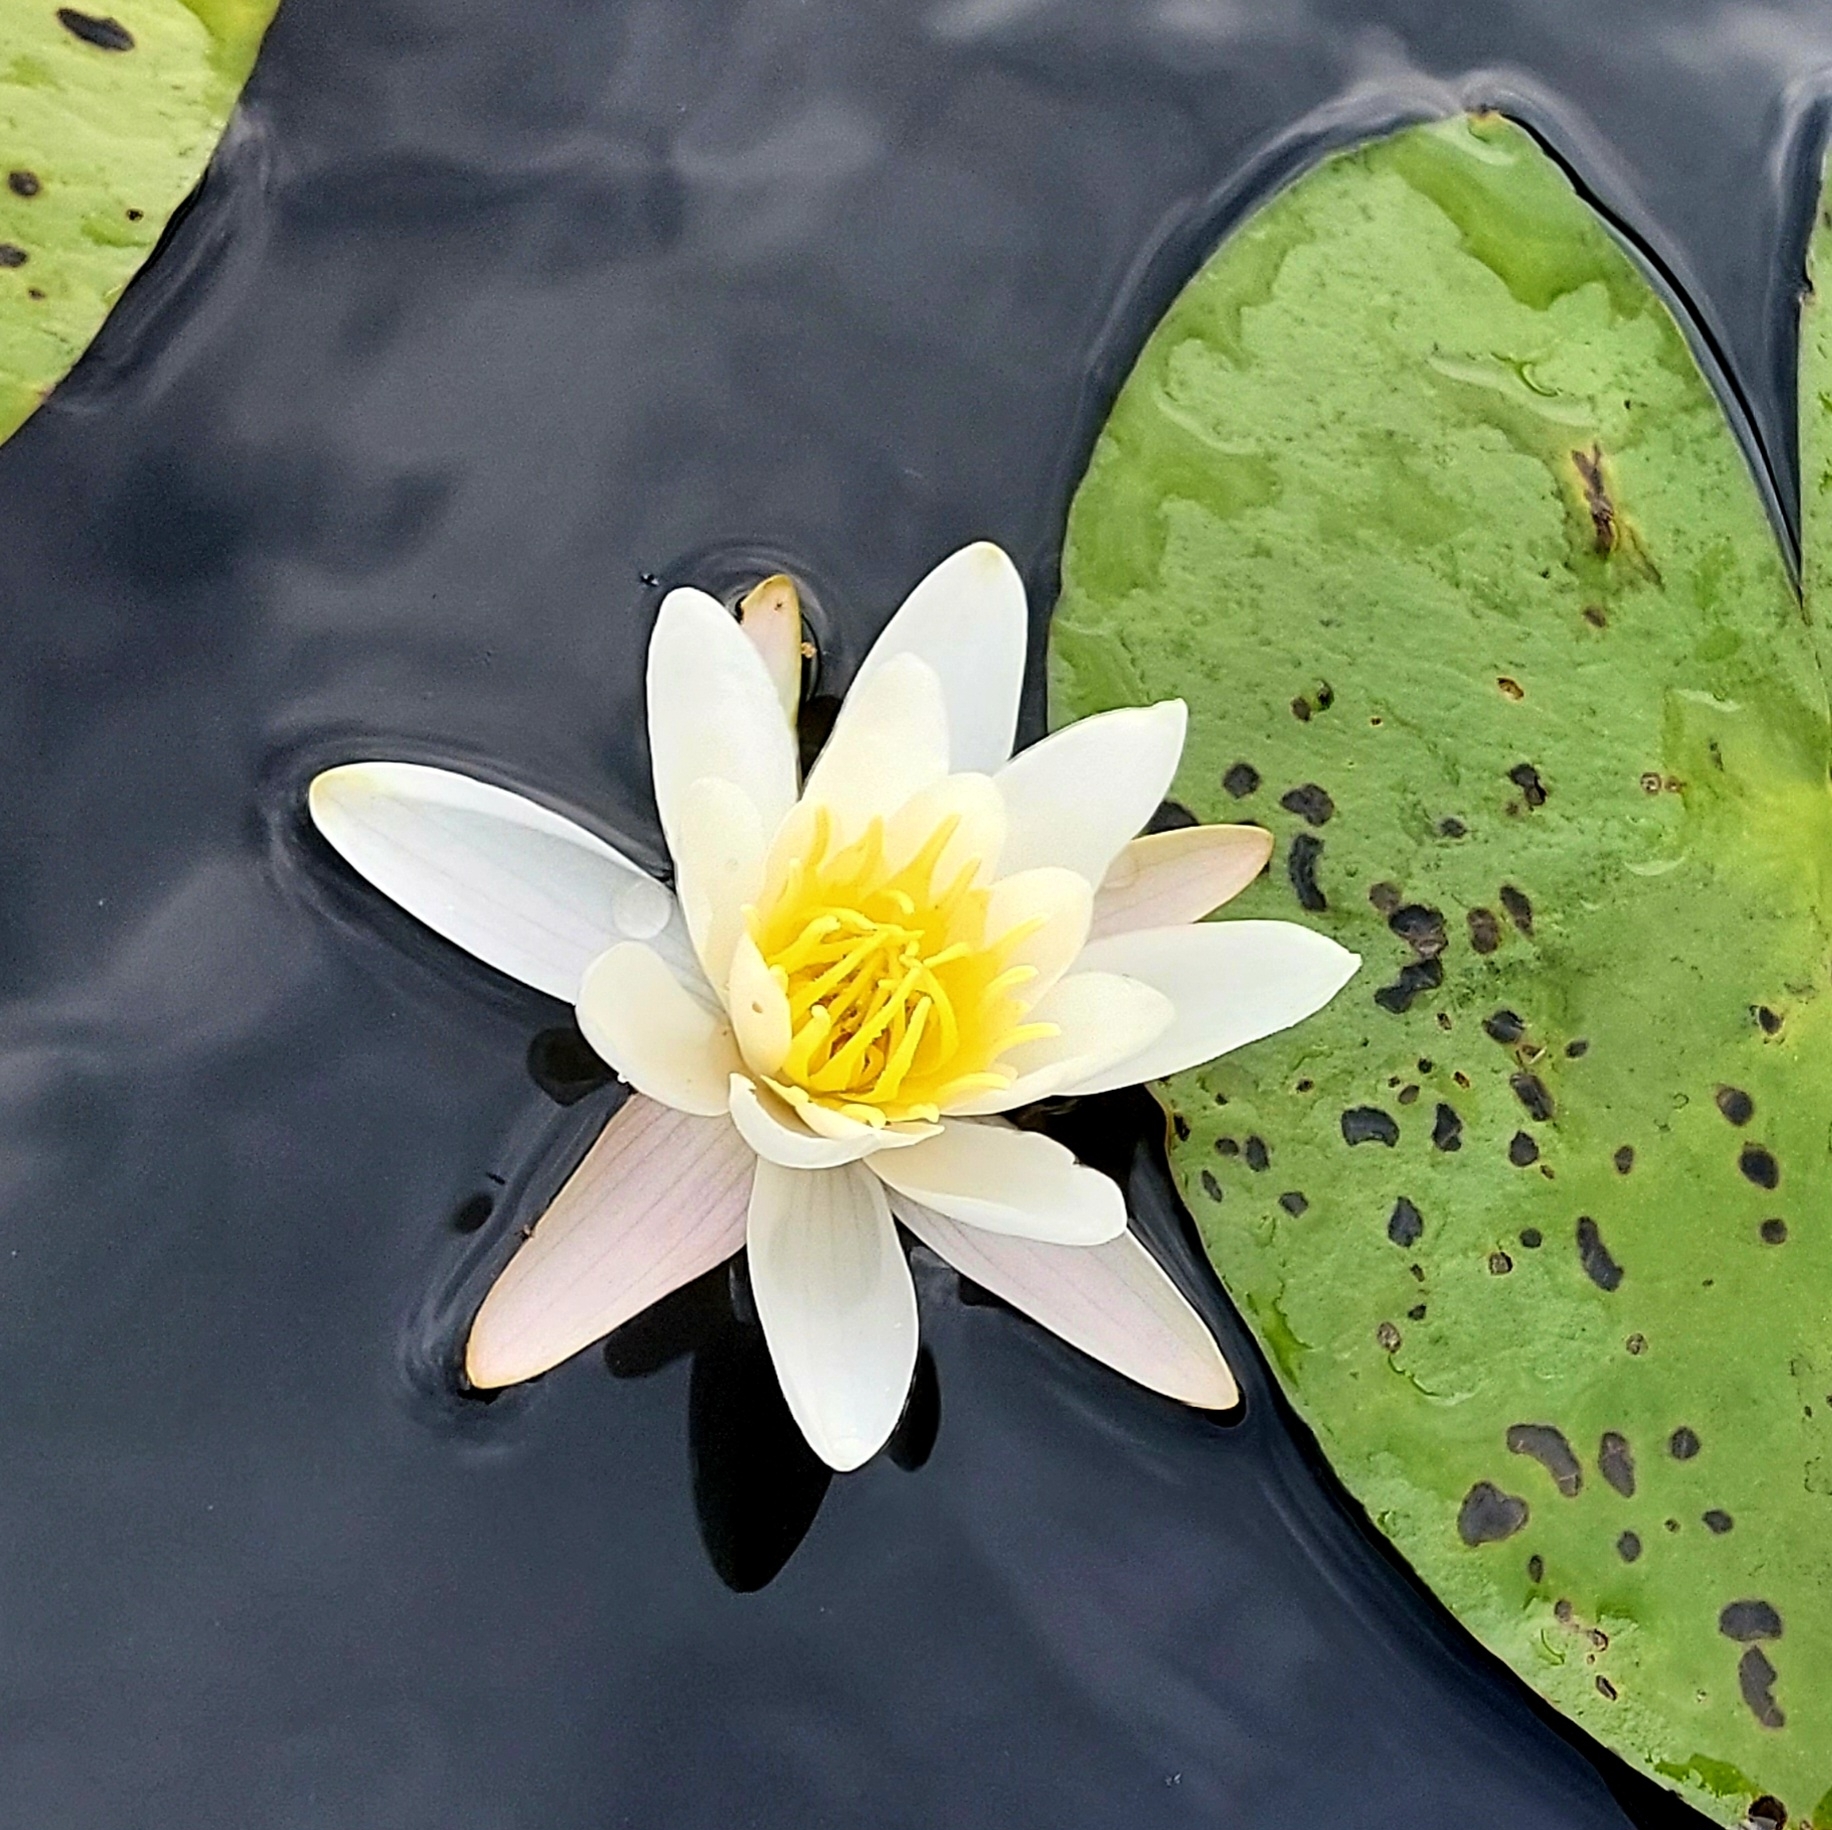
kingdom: Plantae
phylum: Tracheophyta
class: Magnoliopsida
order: Nymphaeales
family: Nymphaeaceae
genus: Nymphaea
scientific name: Nymphaea candida
